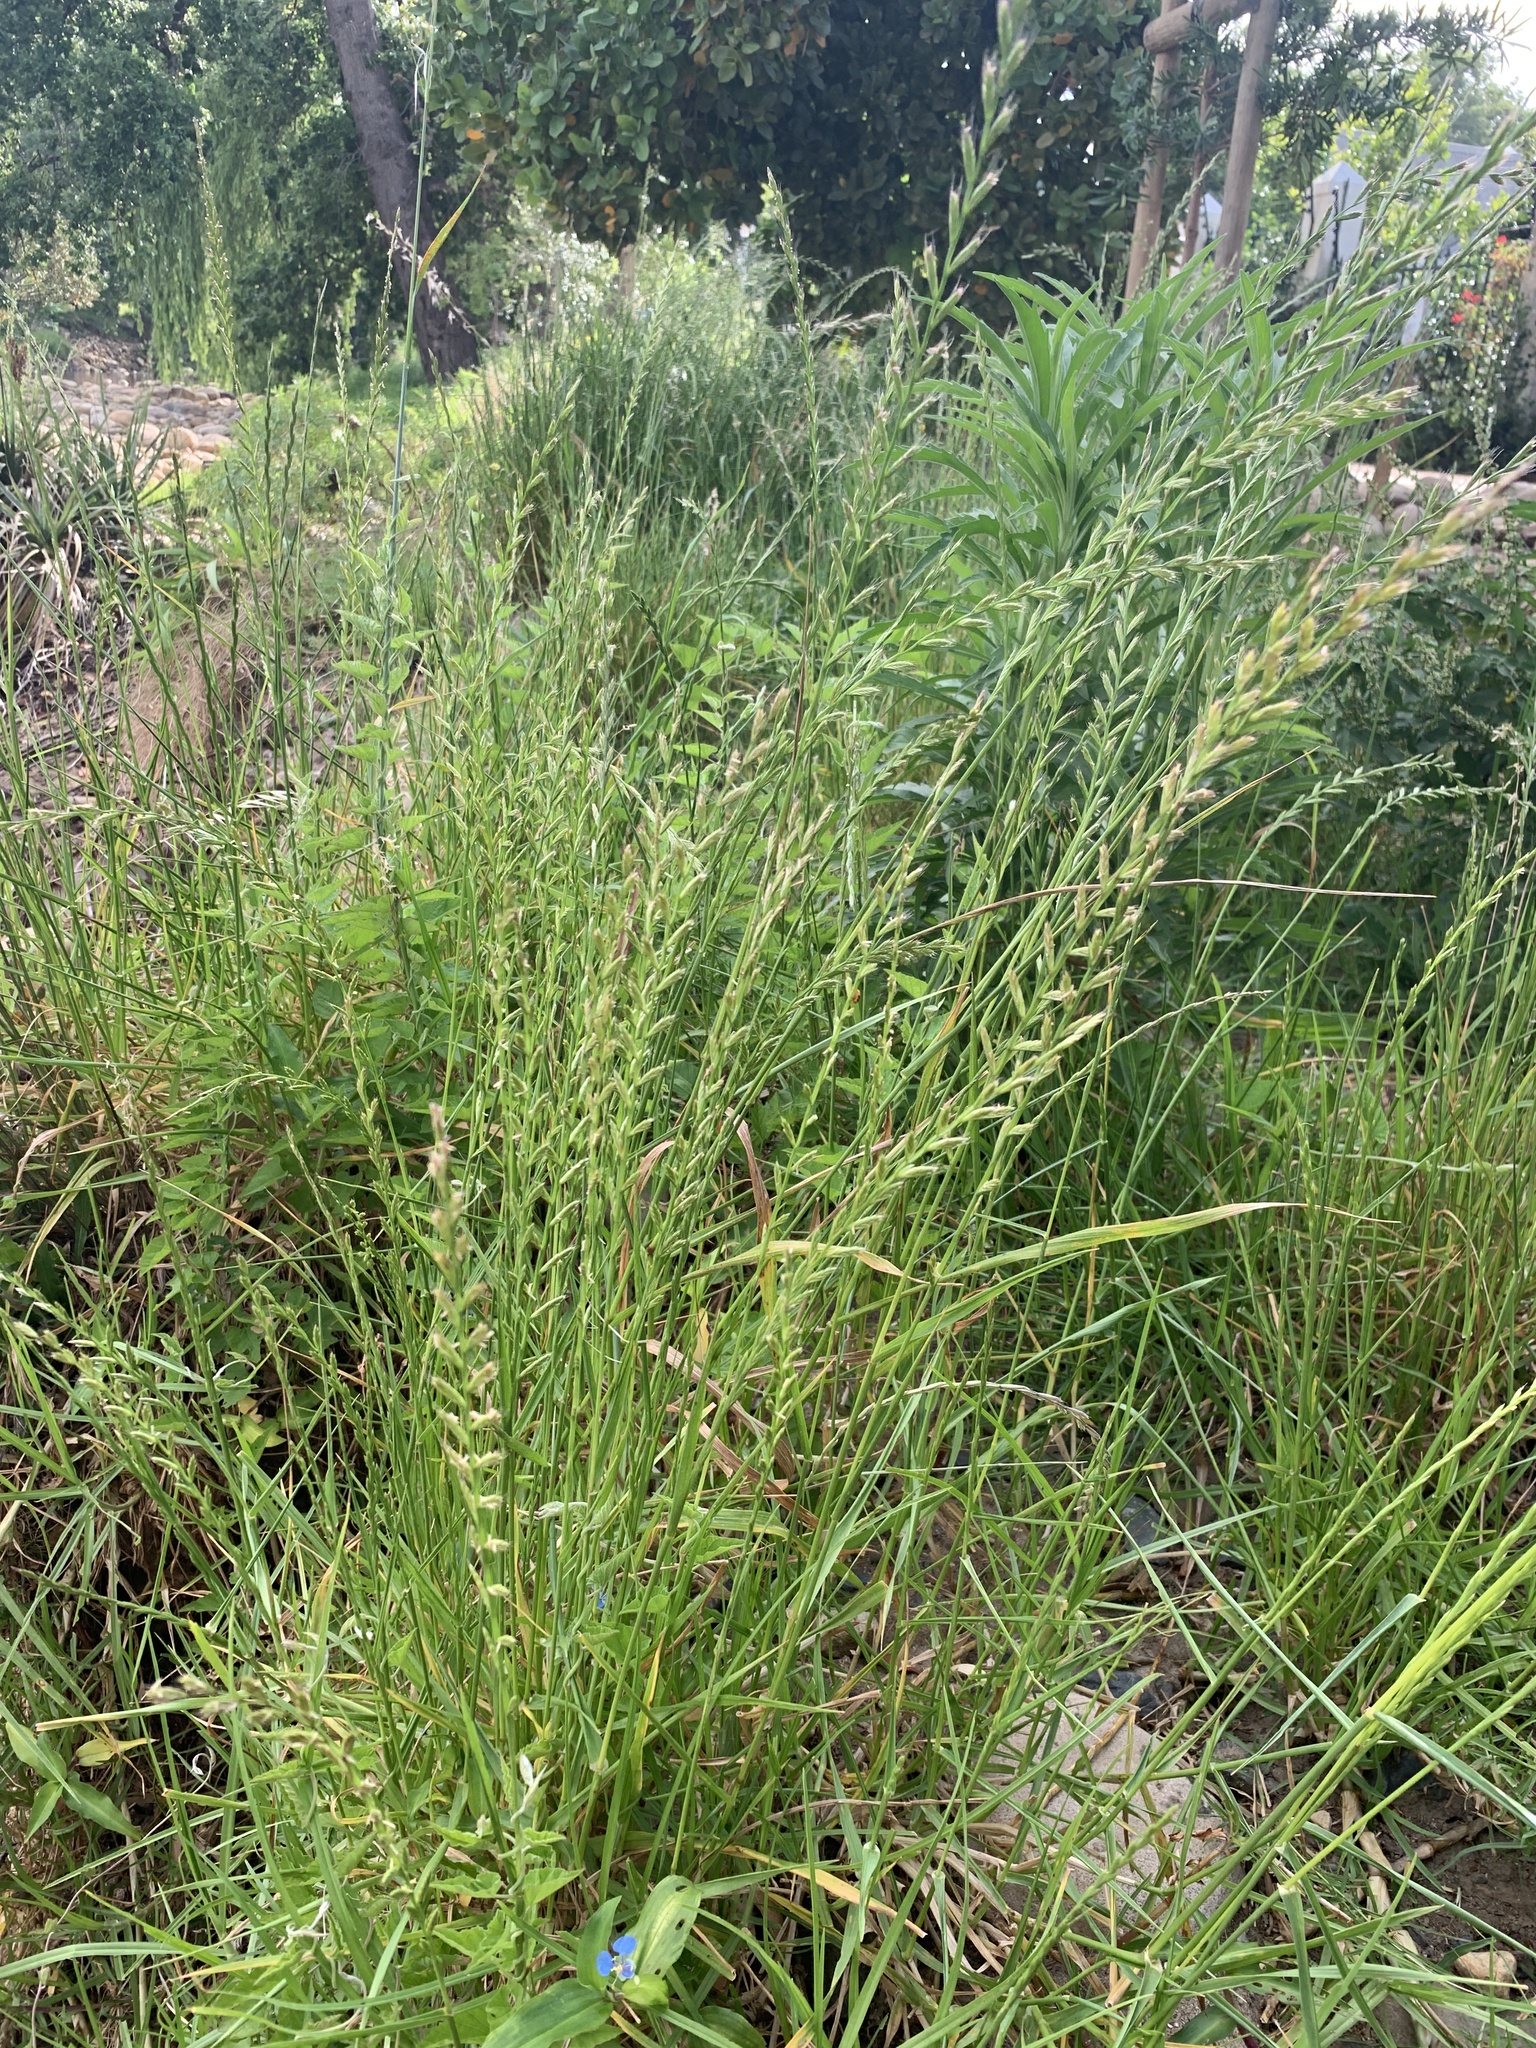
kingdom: Plantae
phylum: Tracheophyta
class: Liliopsida
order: Poales
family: Poaceae
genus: Lolium
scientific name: Lolium
